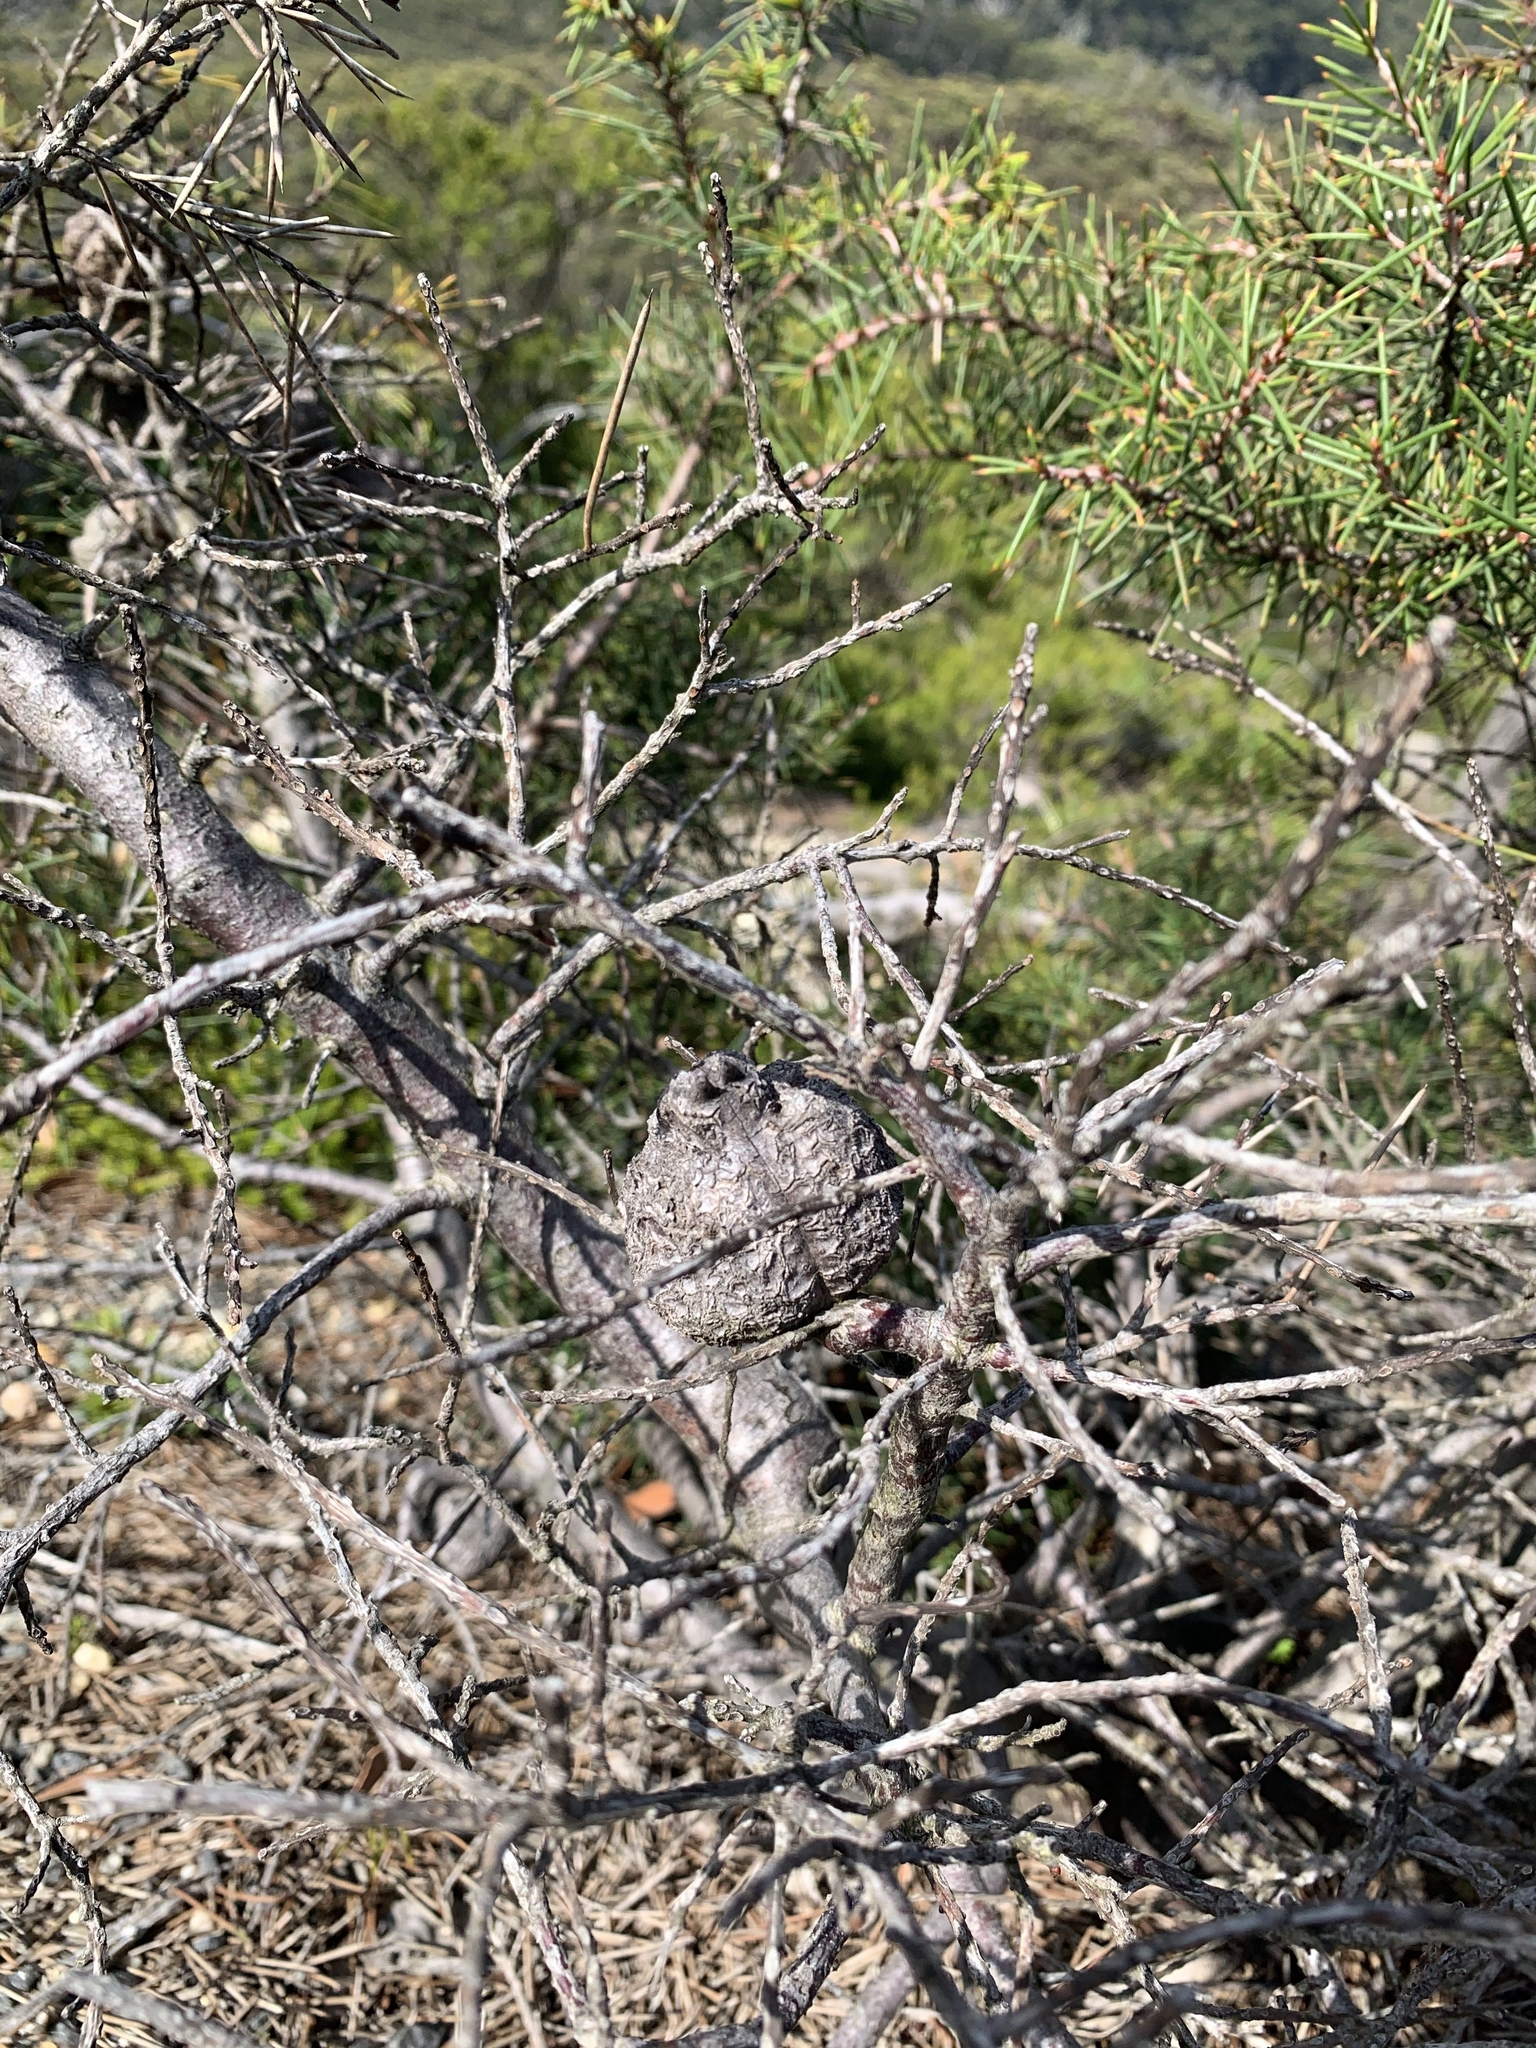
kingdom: Plantae
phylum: Tracheophyta
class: Magnoliopsida
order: Proteales
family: Proteaceae
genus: Hakea
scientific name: Hakea decurrens
